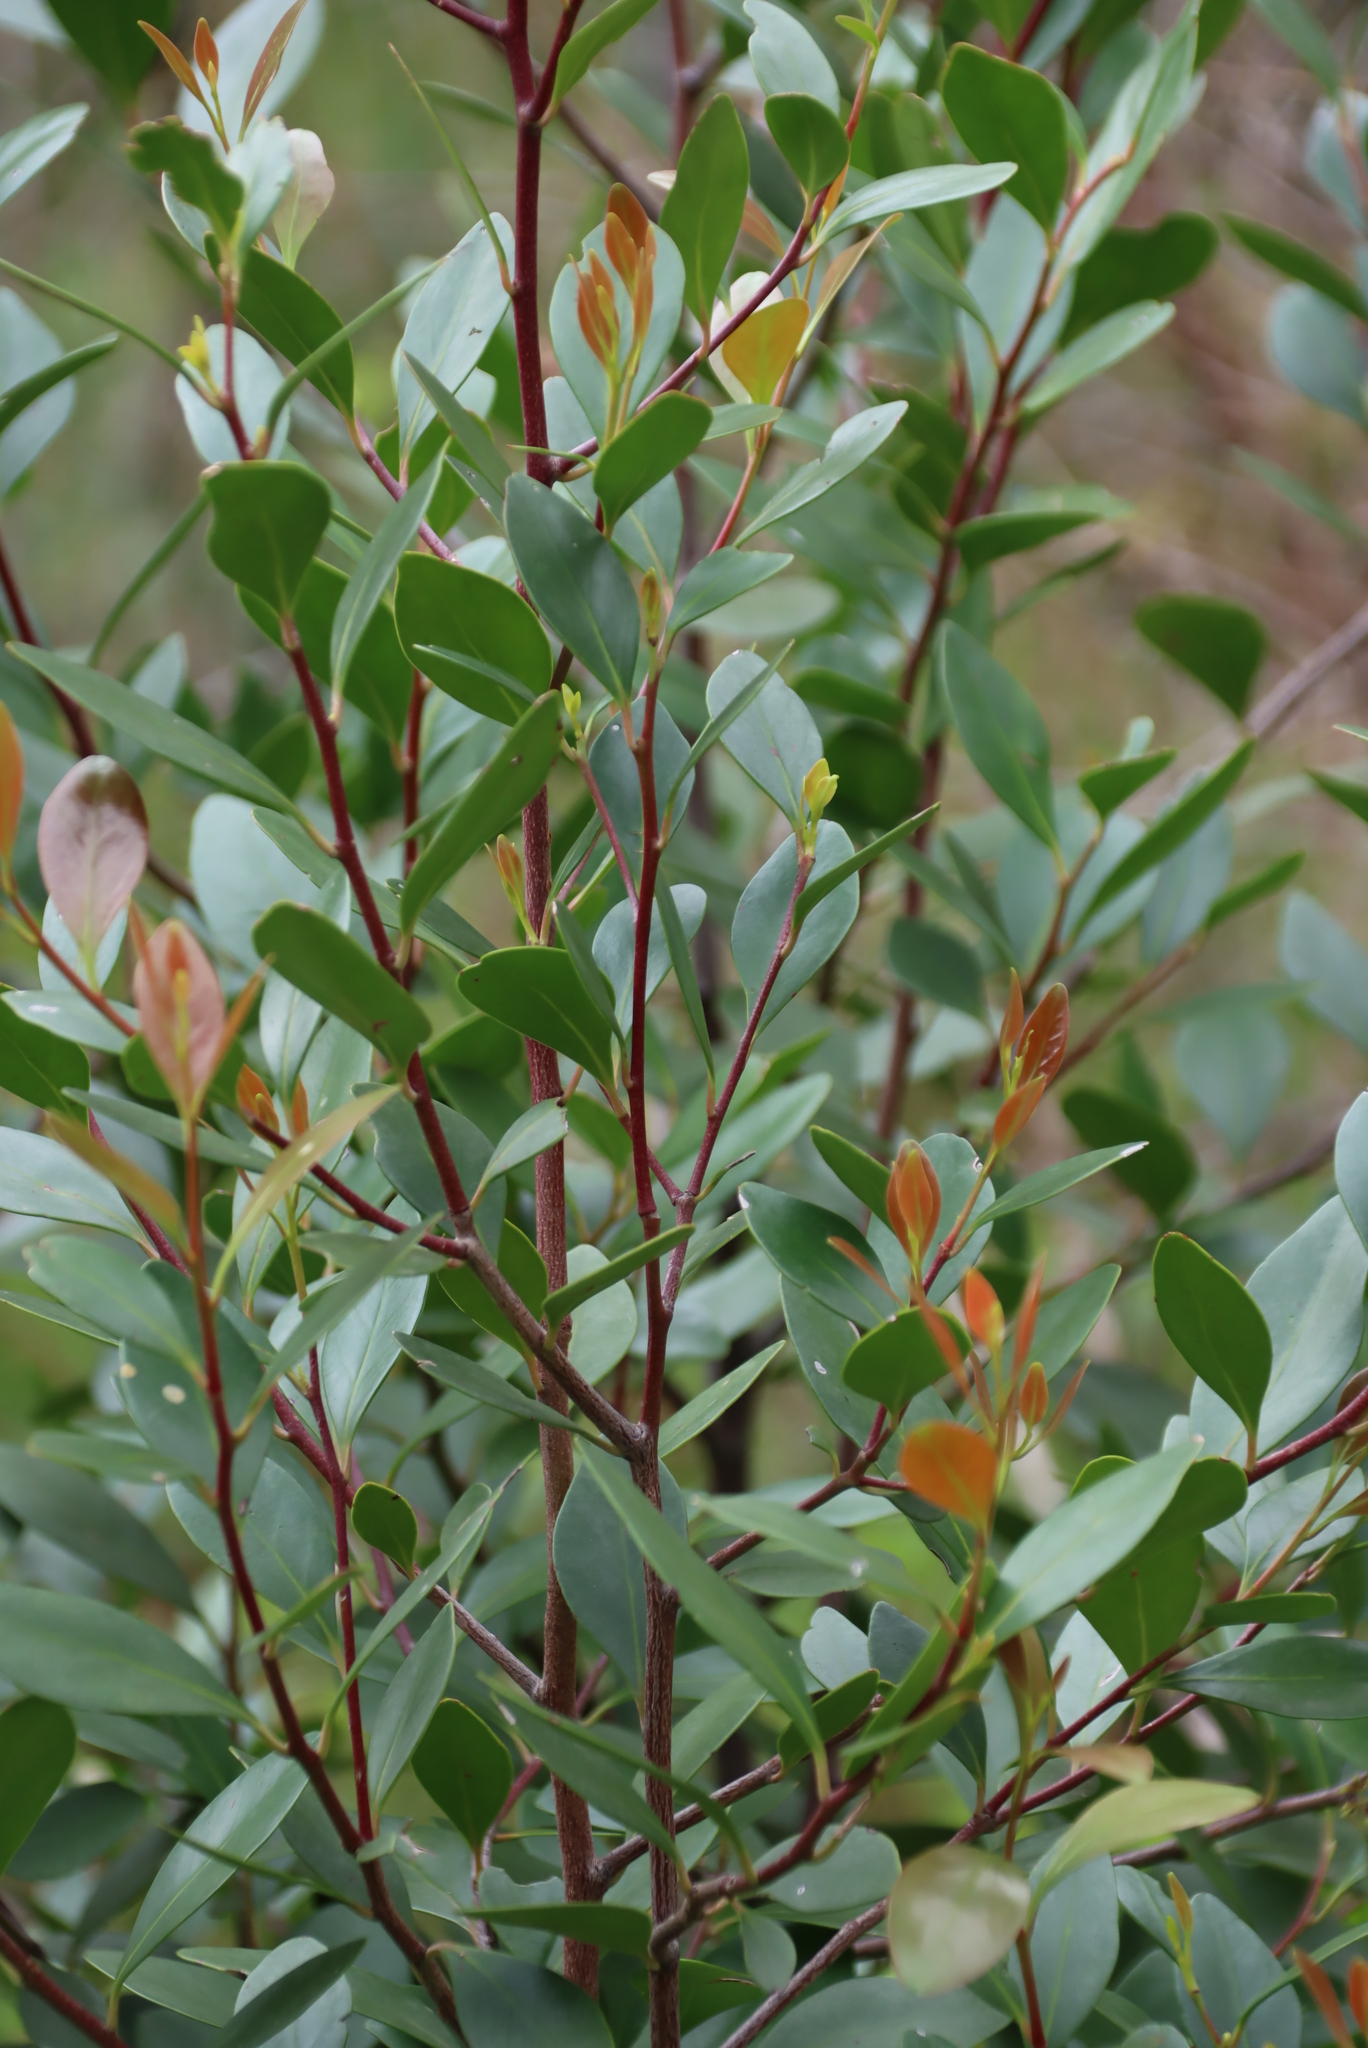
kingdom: Plantae
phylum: Tracheophyta
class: Magnoliopsida
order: Celastrales
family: Celastraceae
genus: Pterocelastrus
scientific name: Pterocelastrus tricuspidatus
